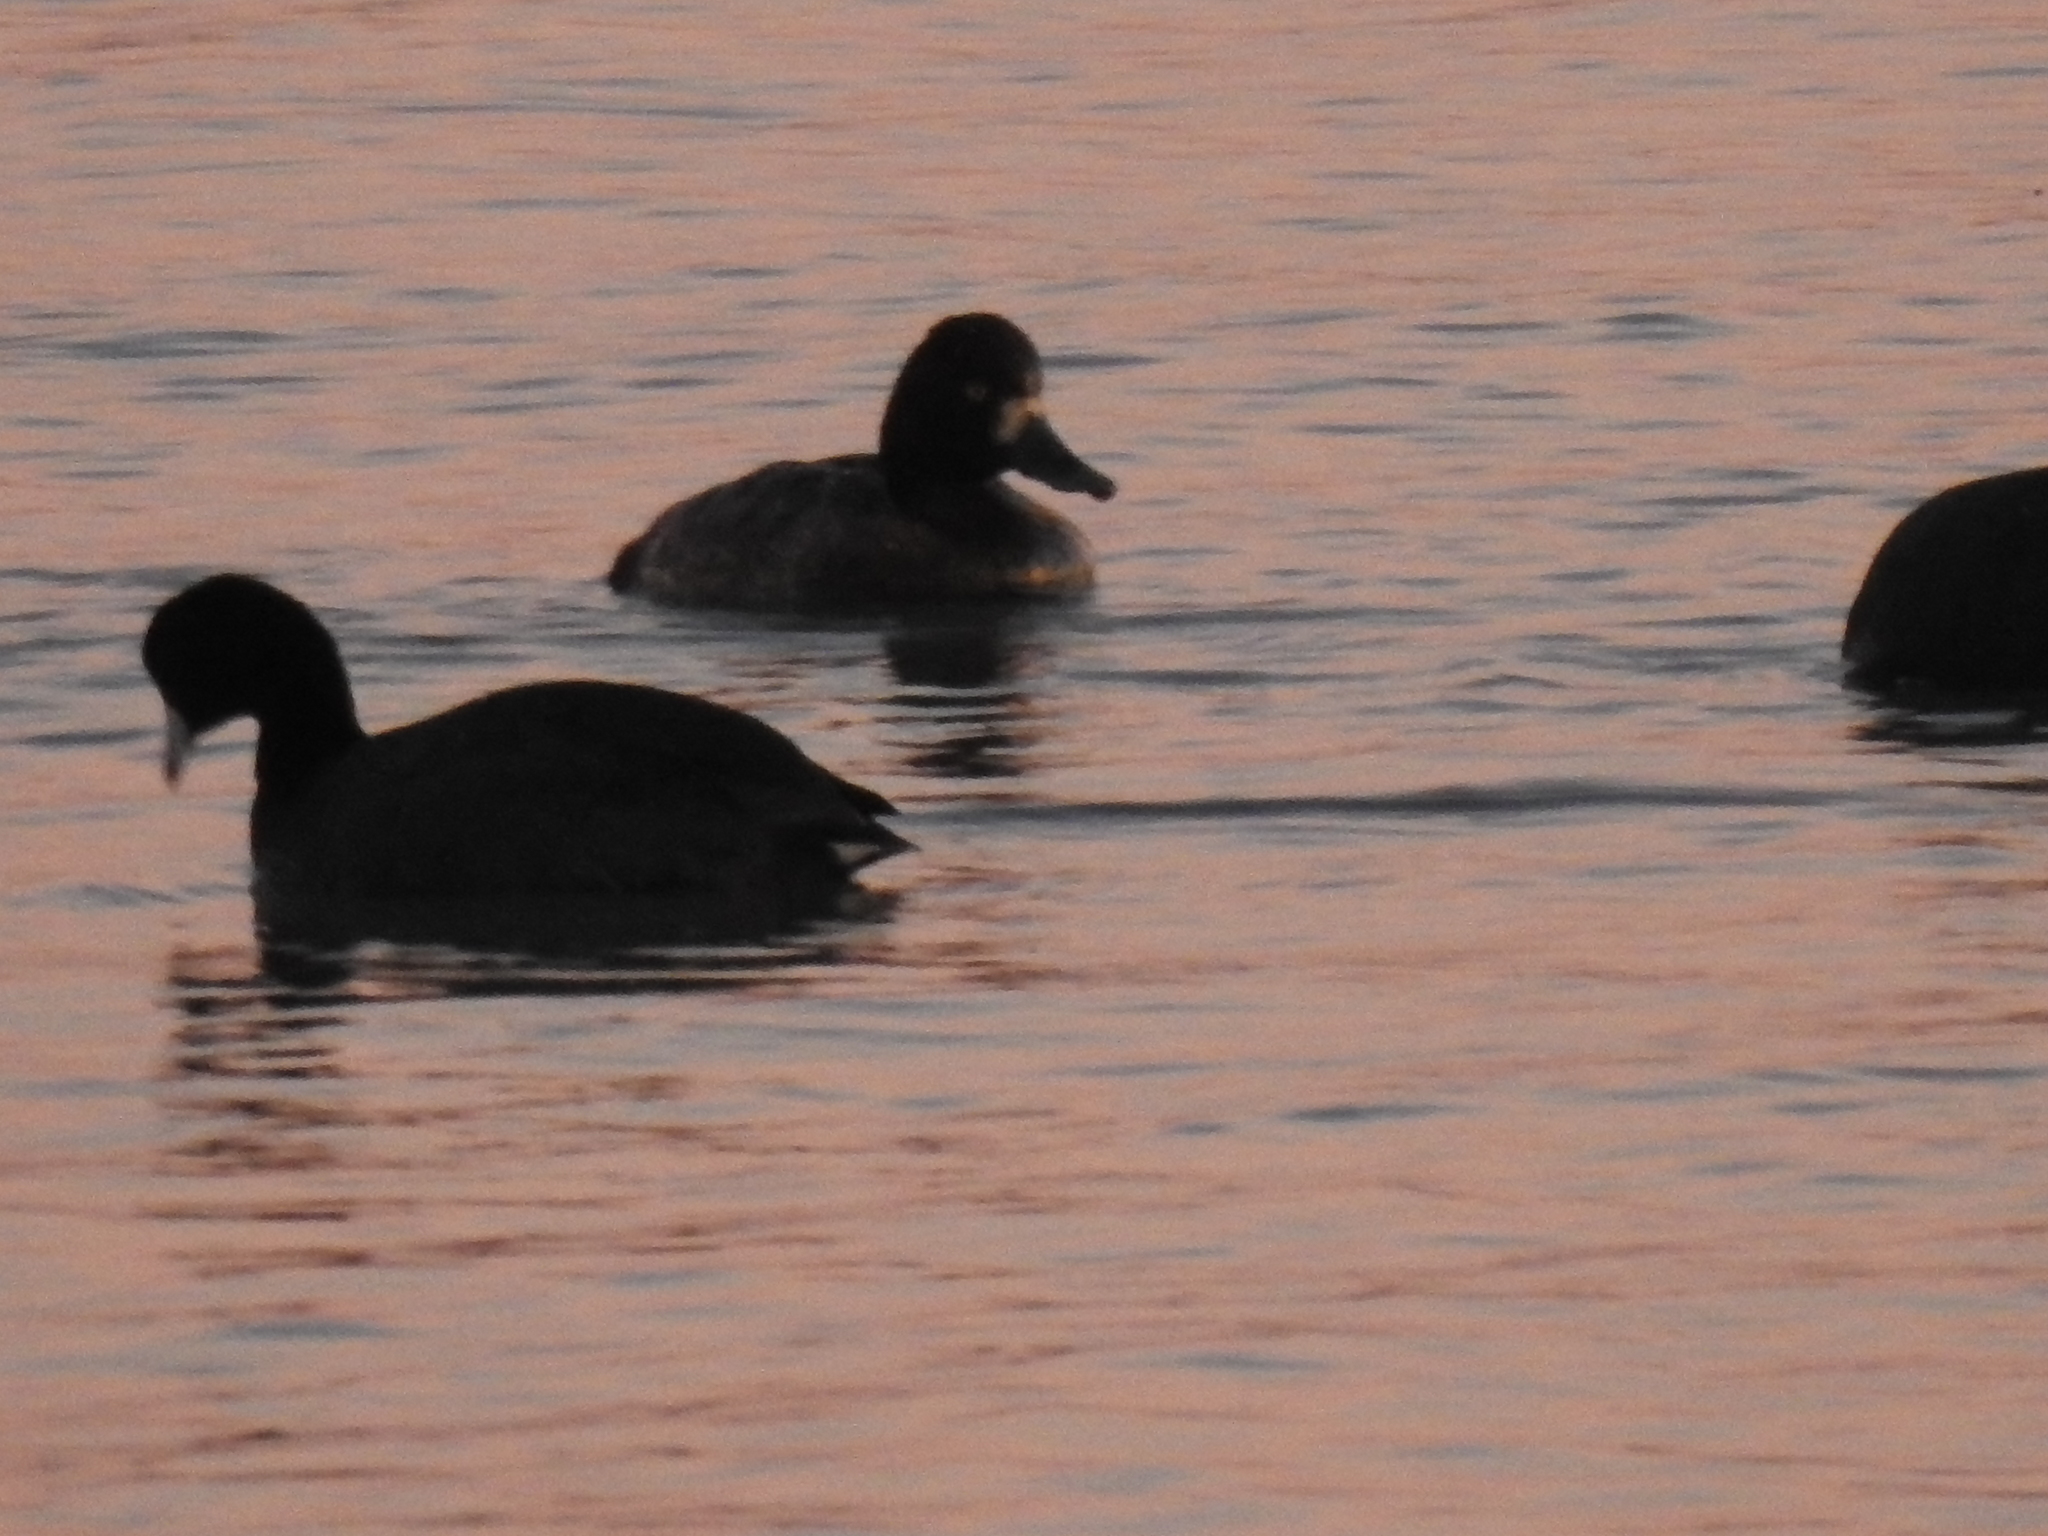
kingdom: Animalia
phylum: Chordata
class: Aves
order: Anseriformes
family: Anatidae
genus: Aythya
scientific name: Aythya affinis
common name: Lesser scaup
